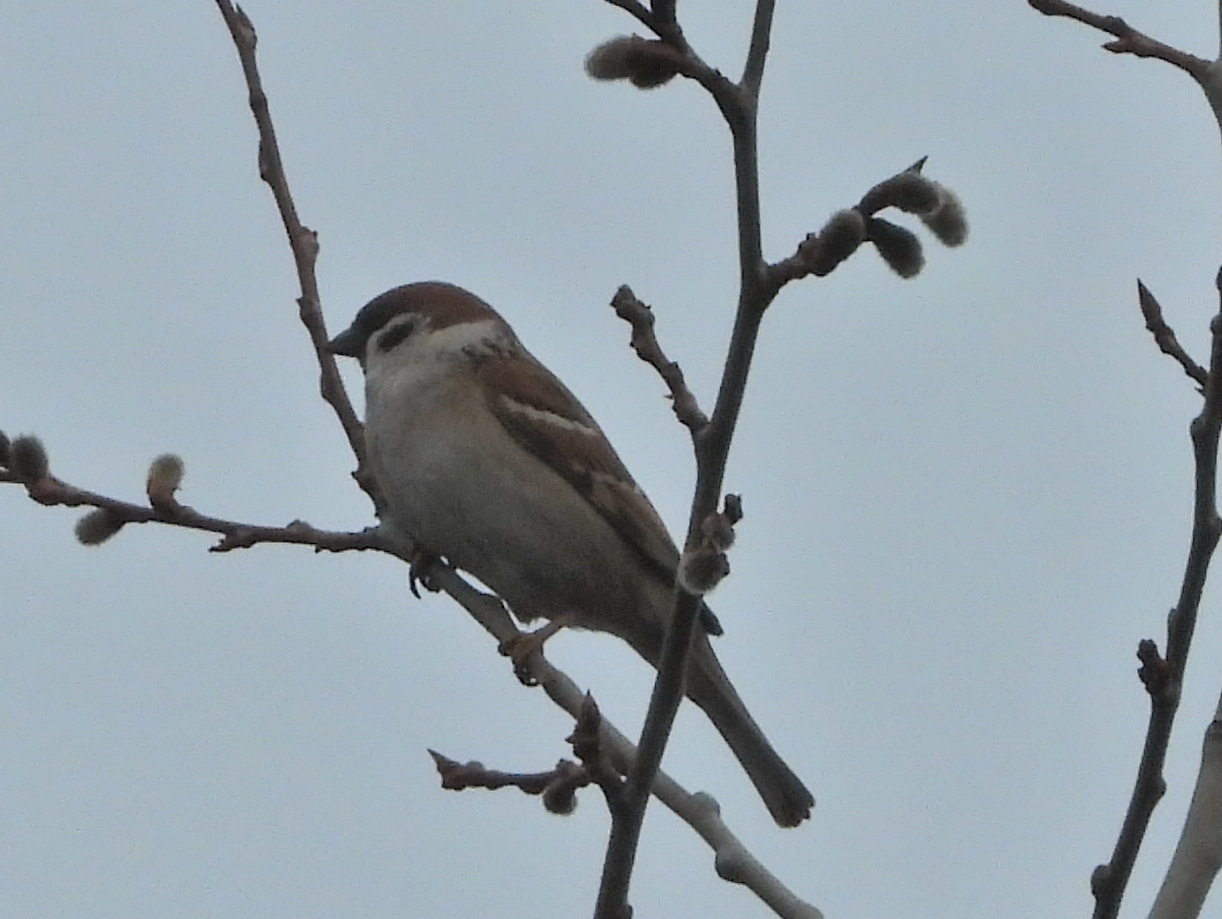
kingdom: Animalia
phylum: Chordata
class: Aves
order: Passeriformes
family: Passeridae
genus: Passer
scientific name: Passer montanus
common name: Eurasian tree sparrow
